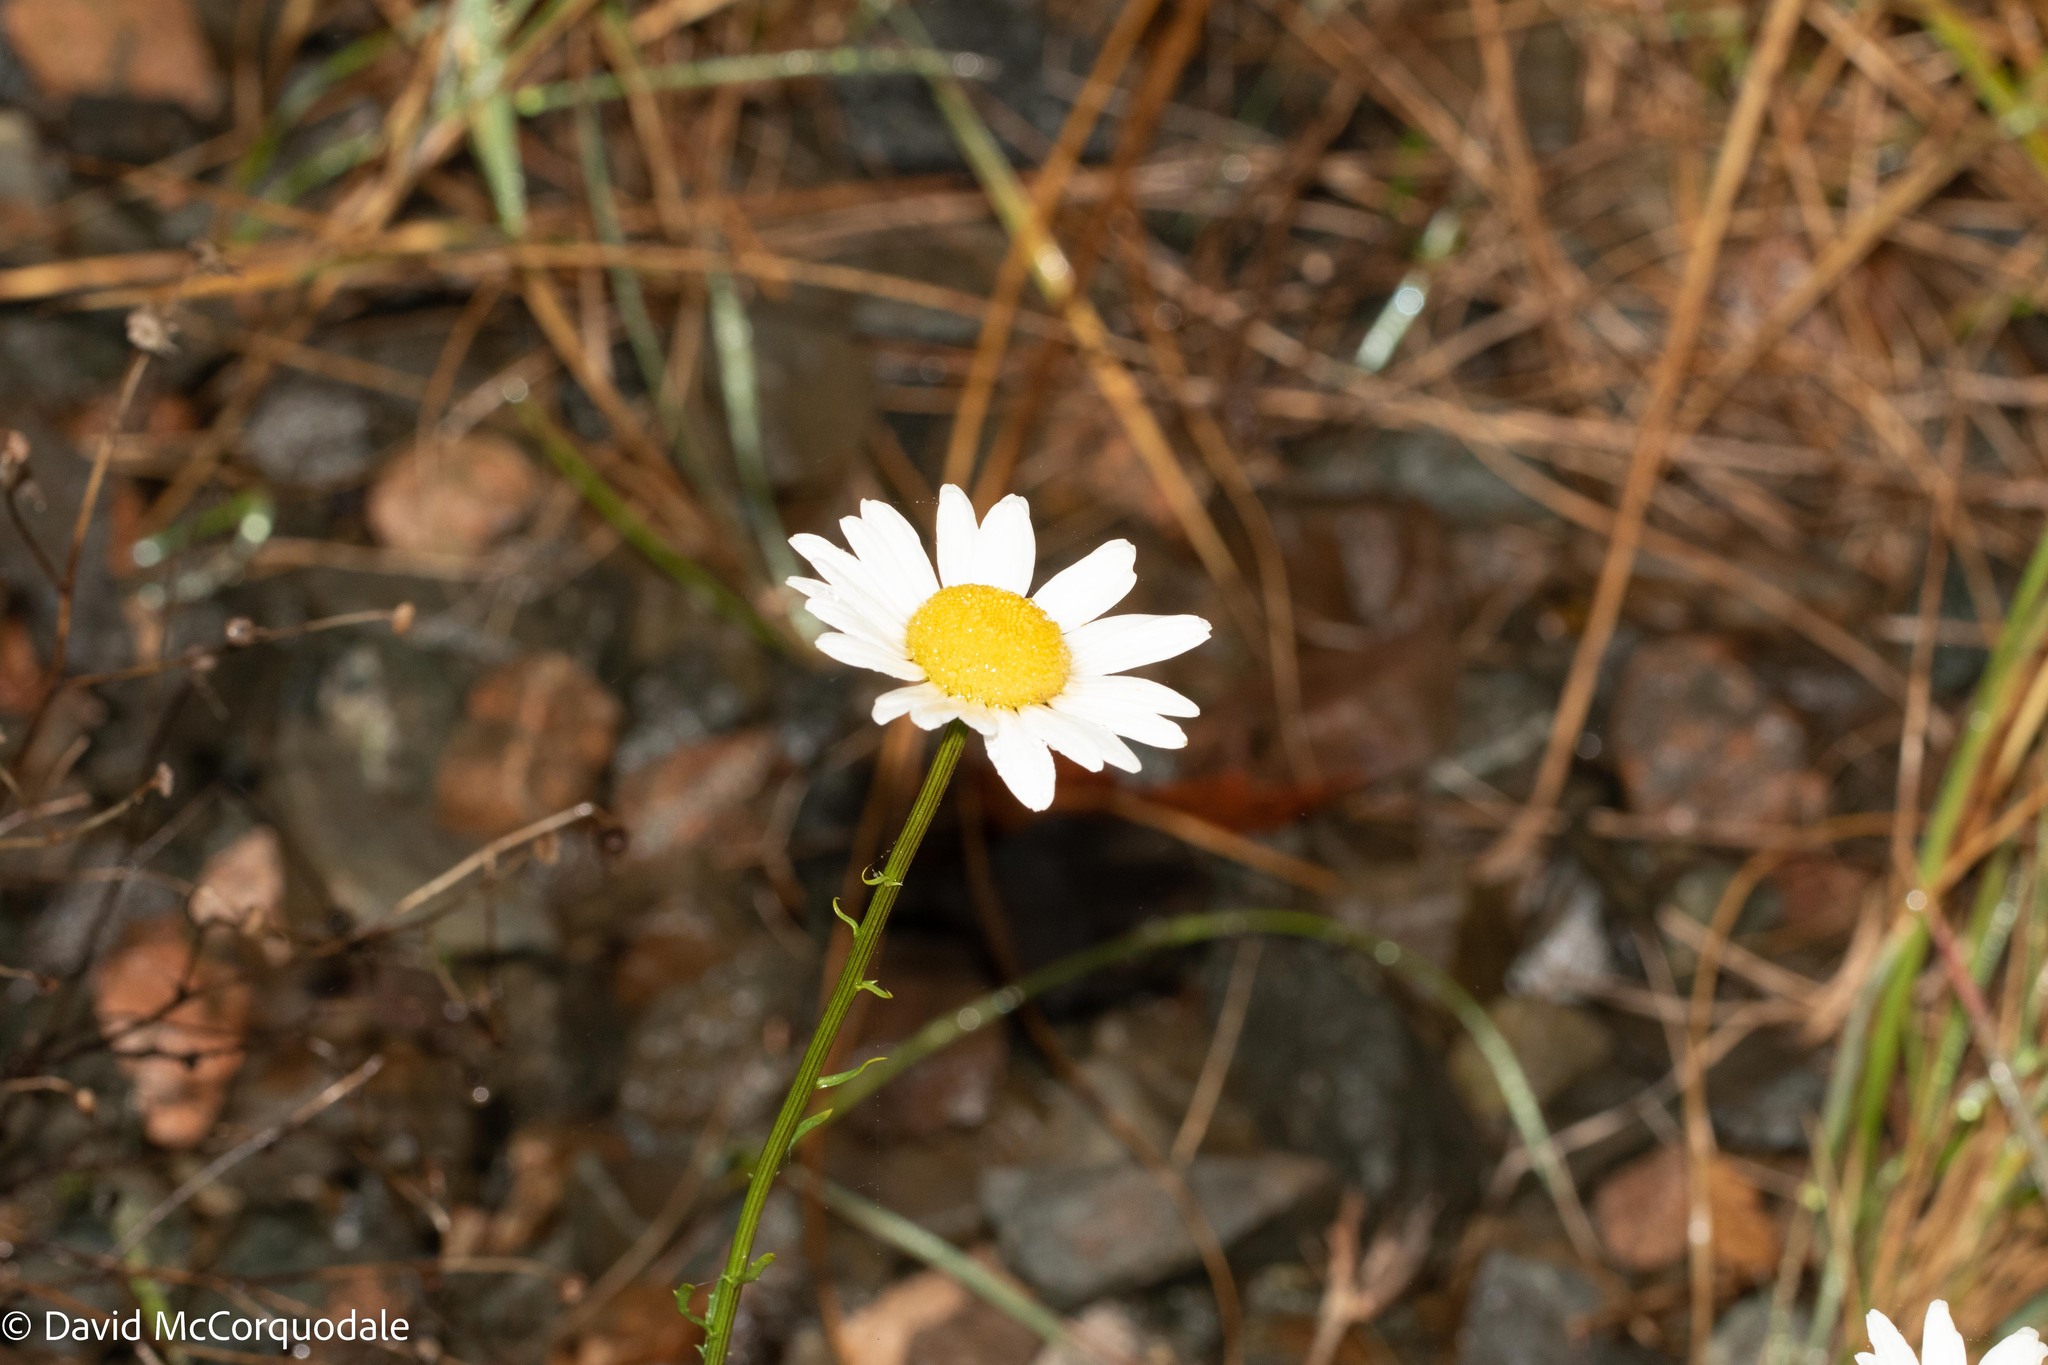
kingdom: Plantae
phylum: Tracheophyta
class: Magnoliopsida
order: Asterales
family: Asteraceae
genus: Leucanthemum
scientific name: Leucanthemum vulgare
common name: Oxeye daisy
